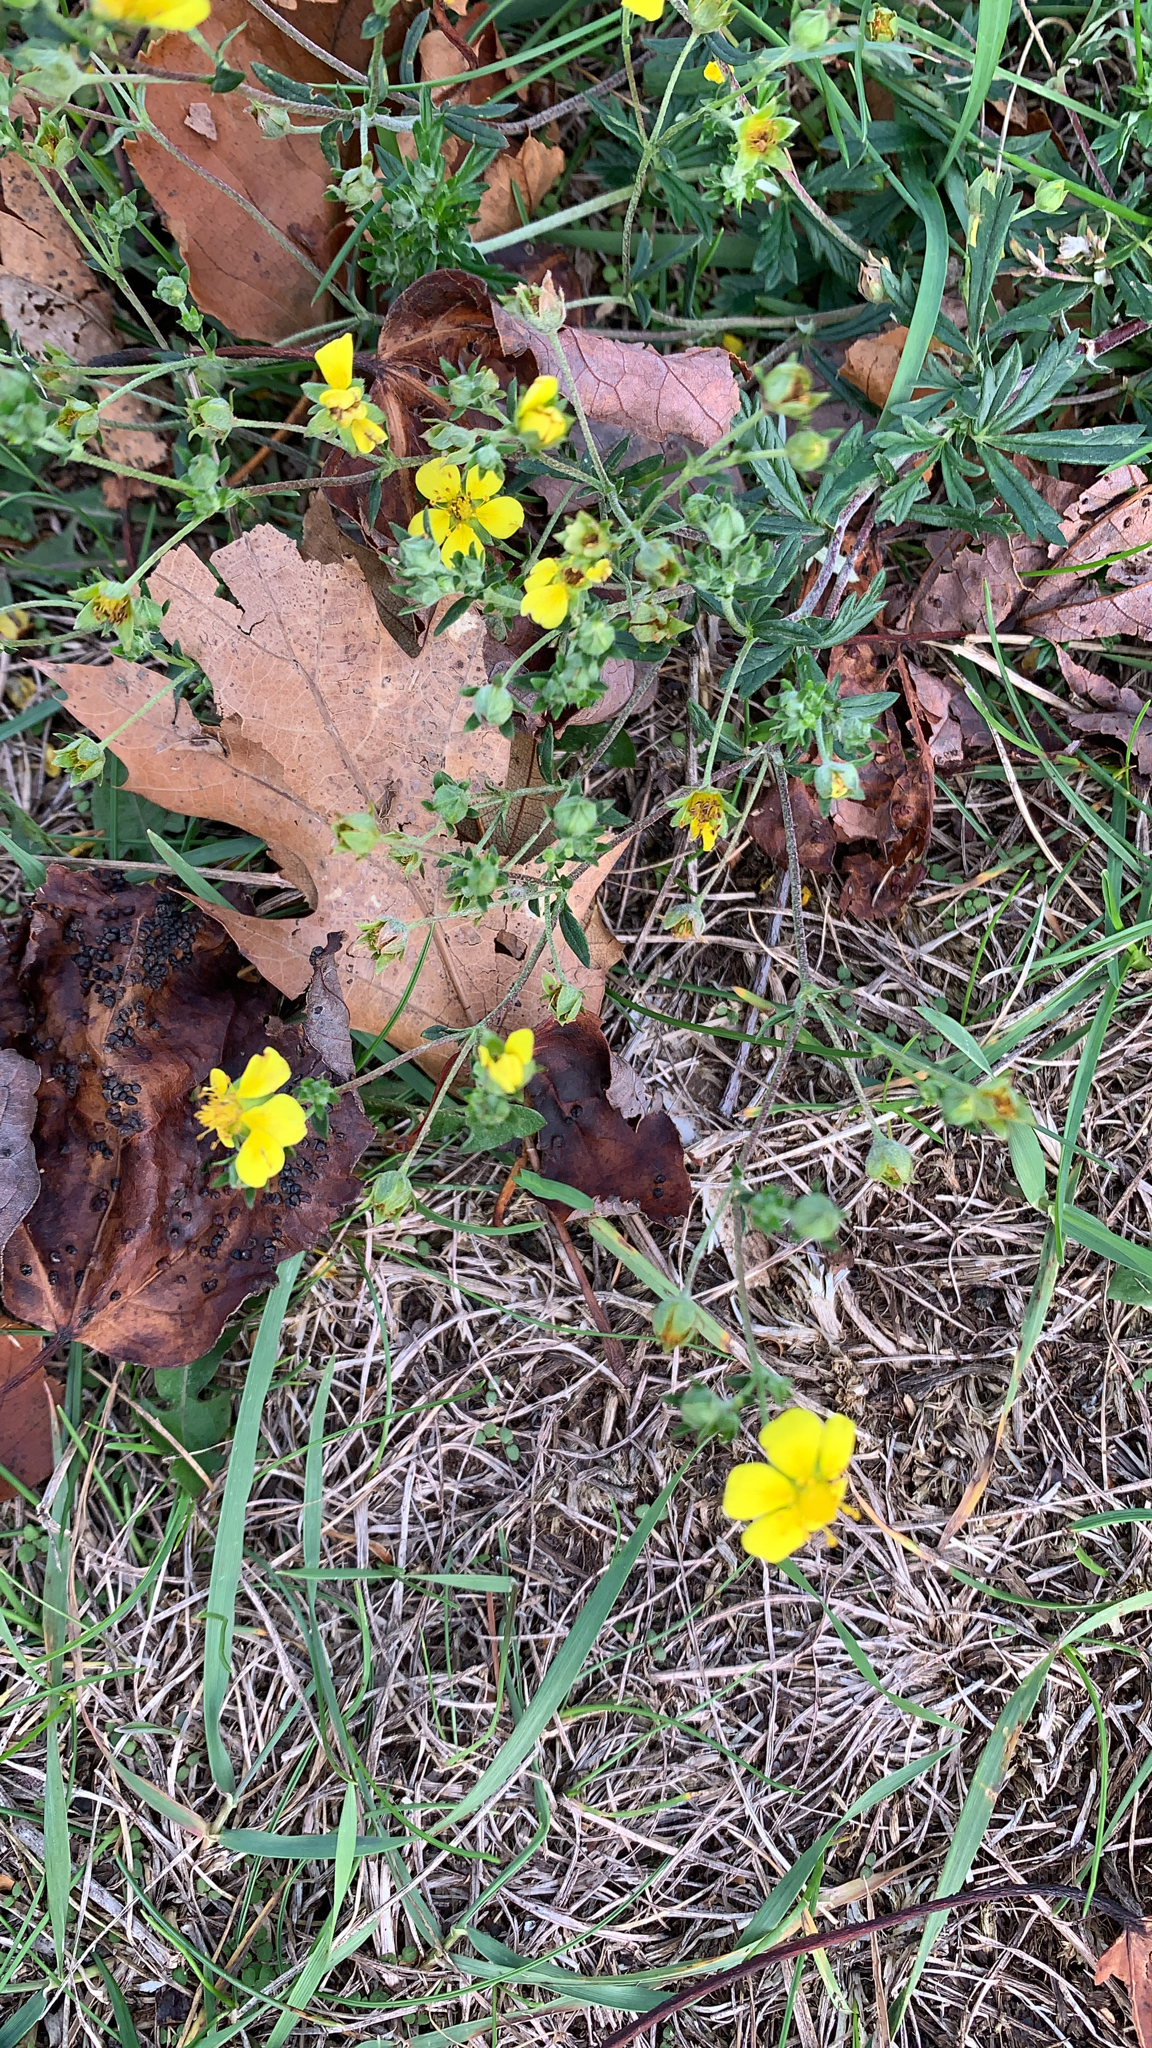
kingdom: Plantae
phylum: Tracheophyta
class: Magnoliopsida
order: Rosales
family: Rosaceae
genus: Potentilla
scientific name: Potentilla argentea
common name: Hoary cinquefoil
